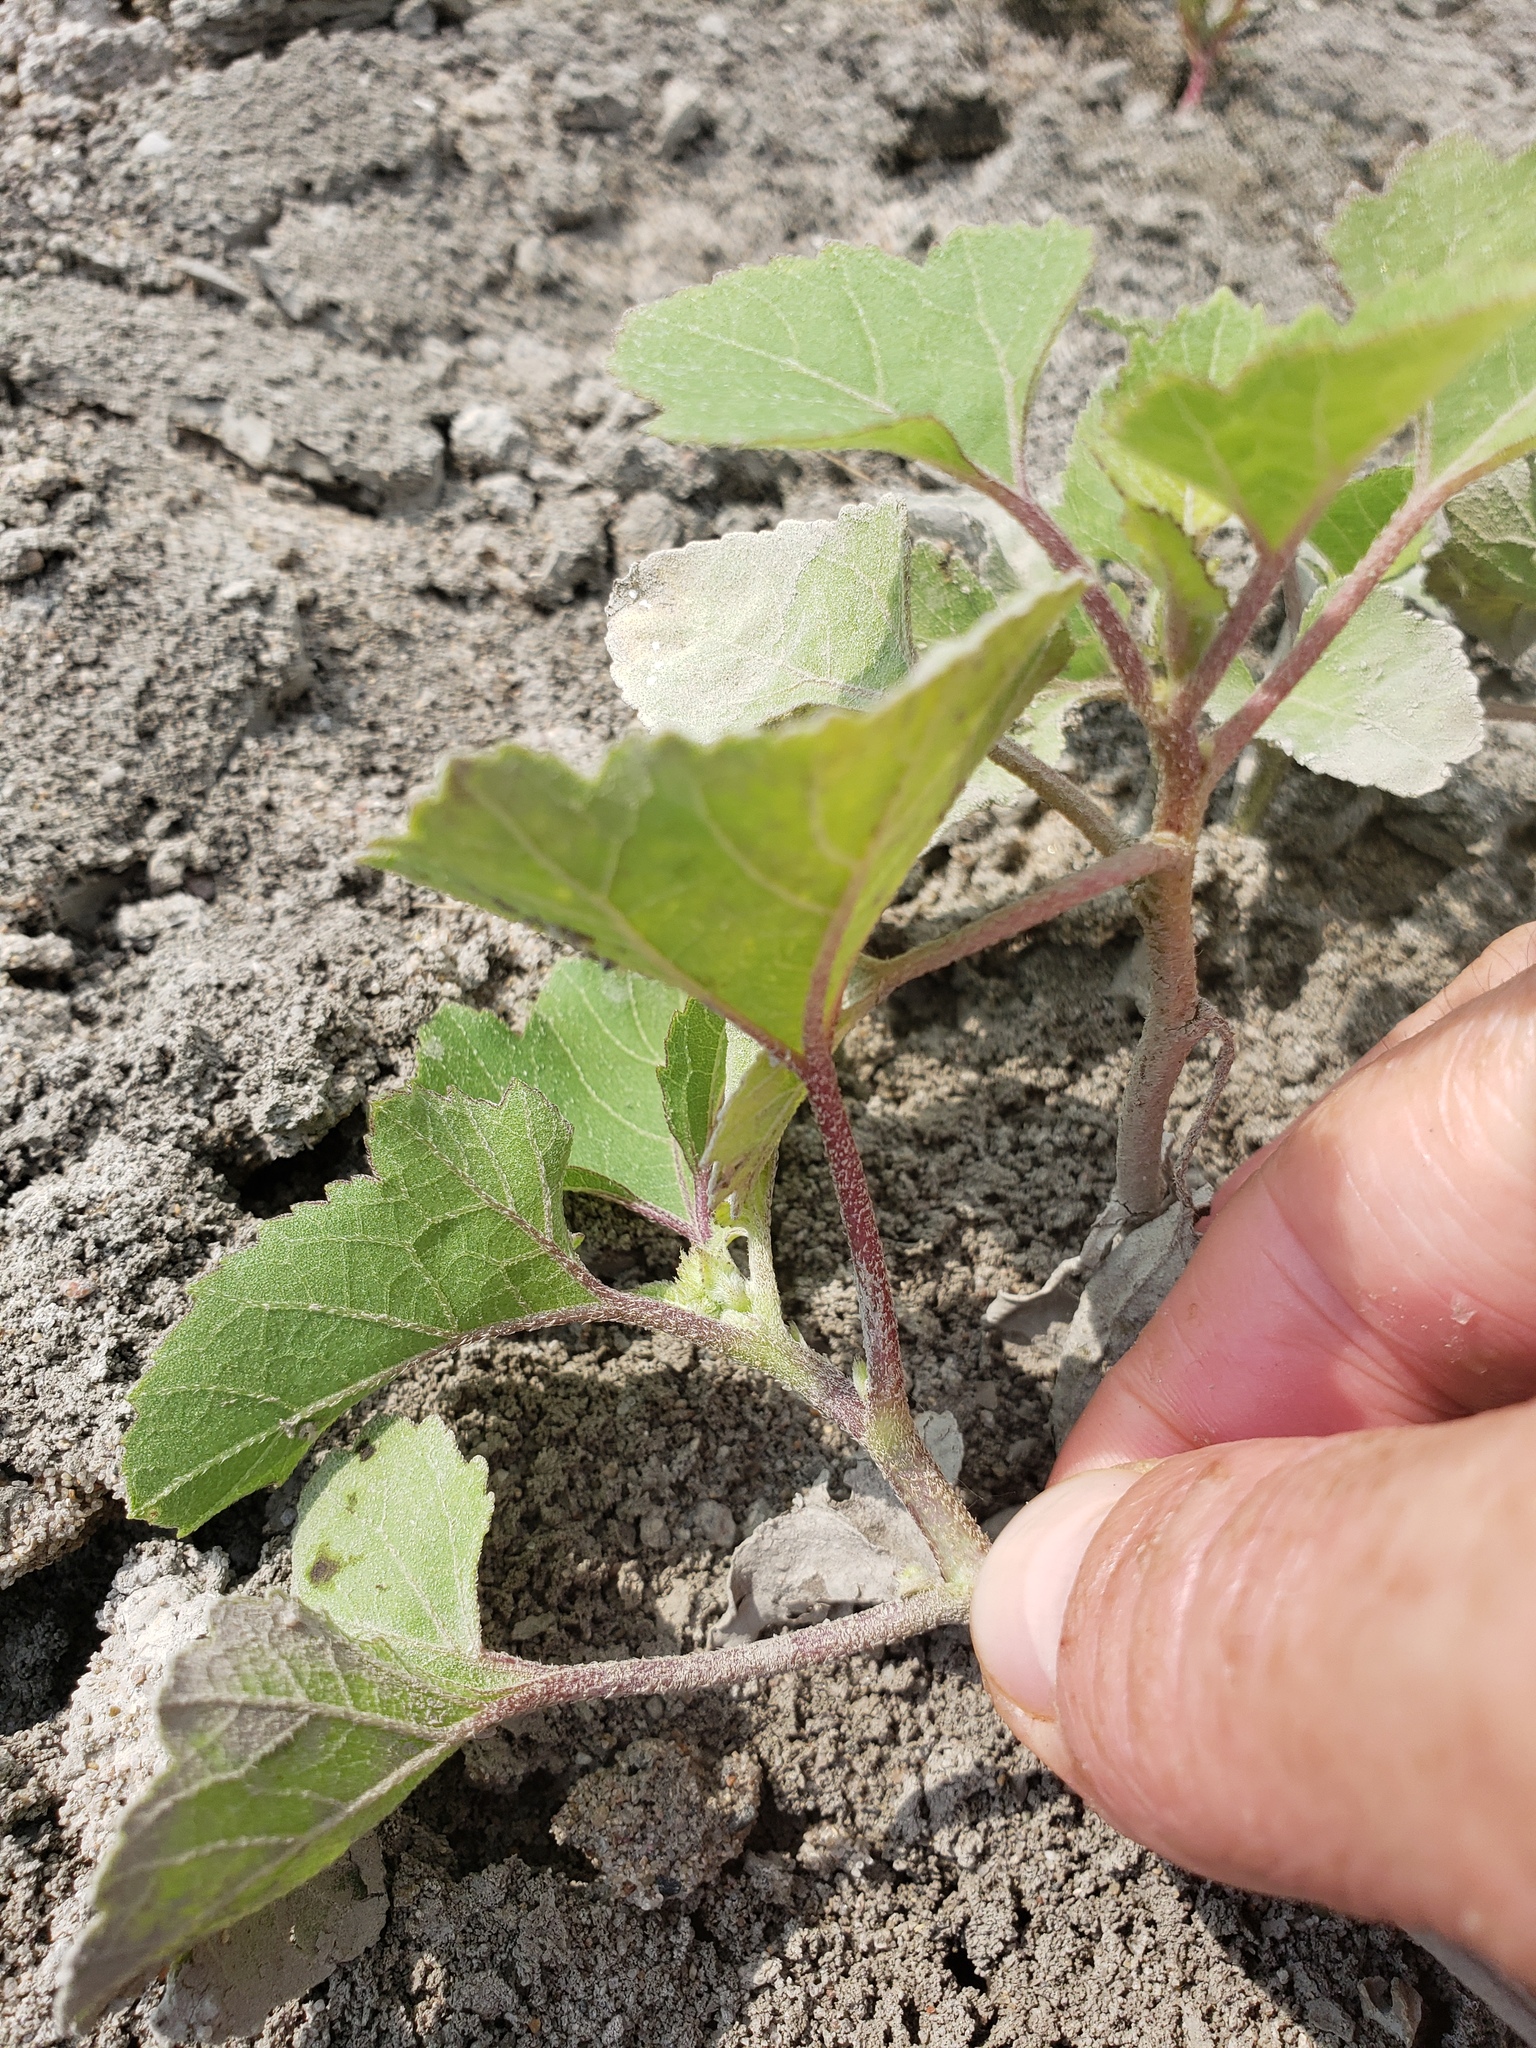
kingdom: Plantae
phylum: Tracheophyta
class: Magnoliopsida
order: Asterales
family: Asteraceae
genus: Xanthium
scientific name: Xanthium strumarium
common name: Rough cocklebur
